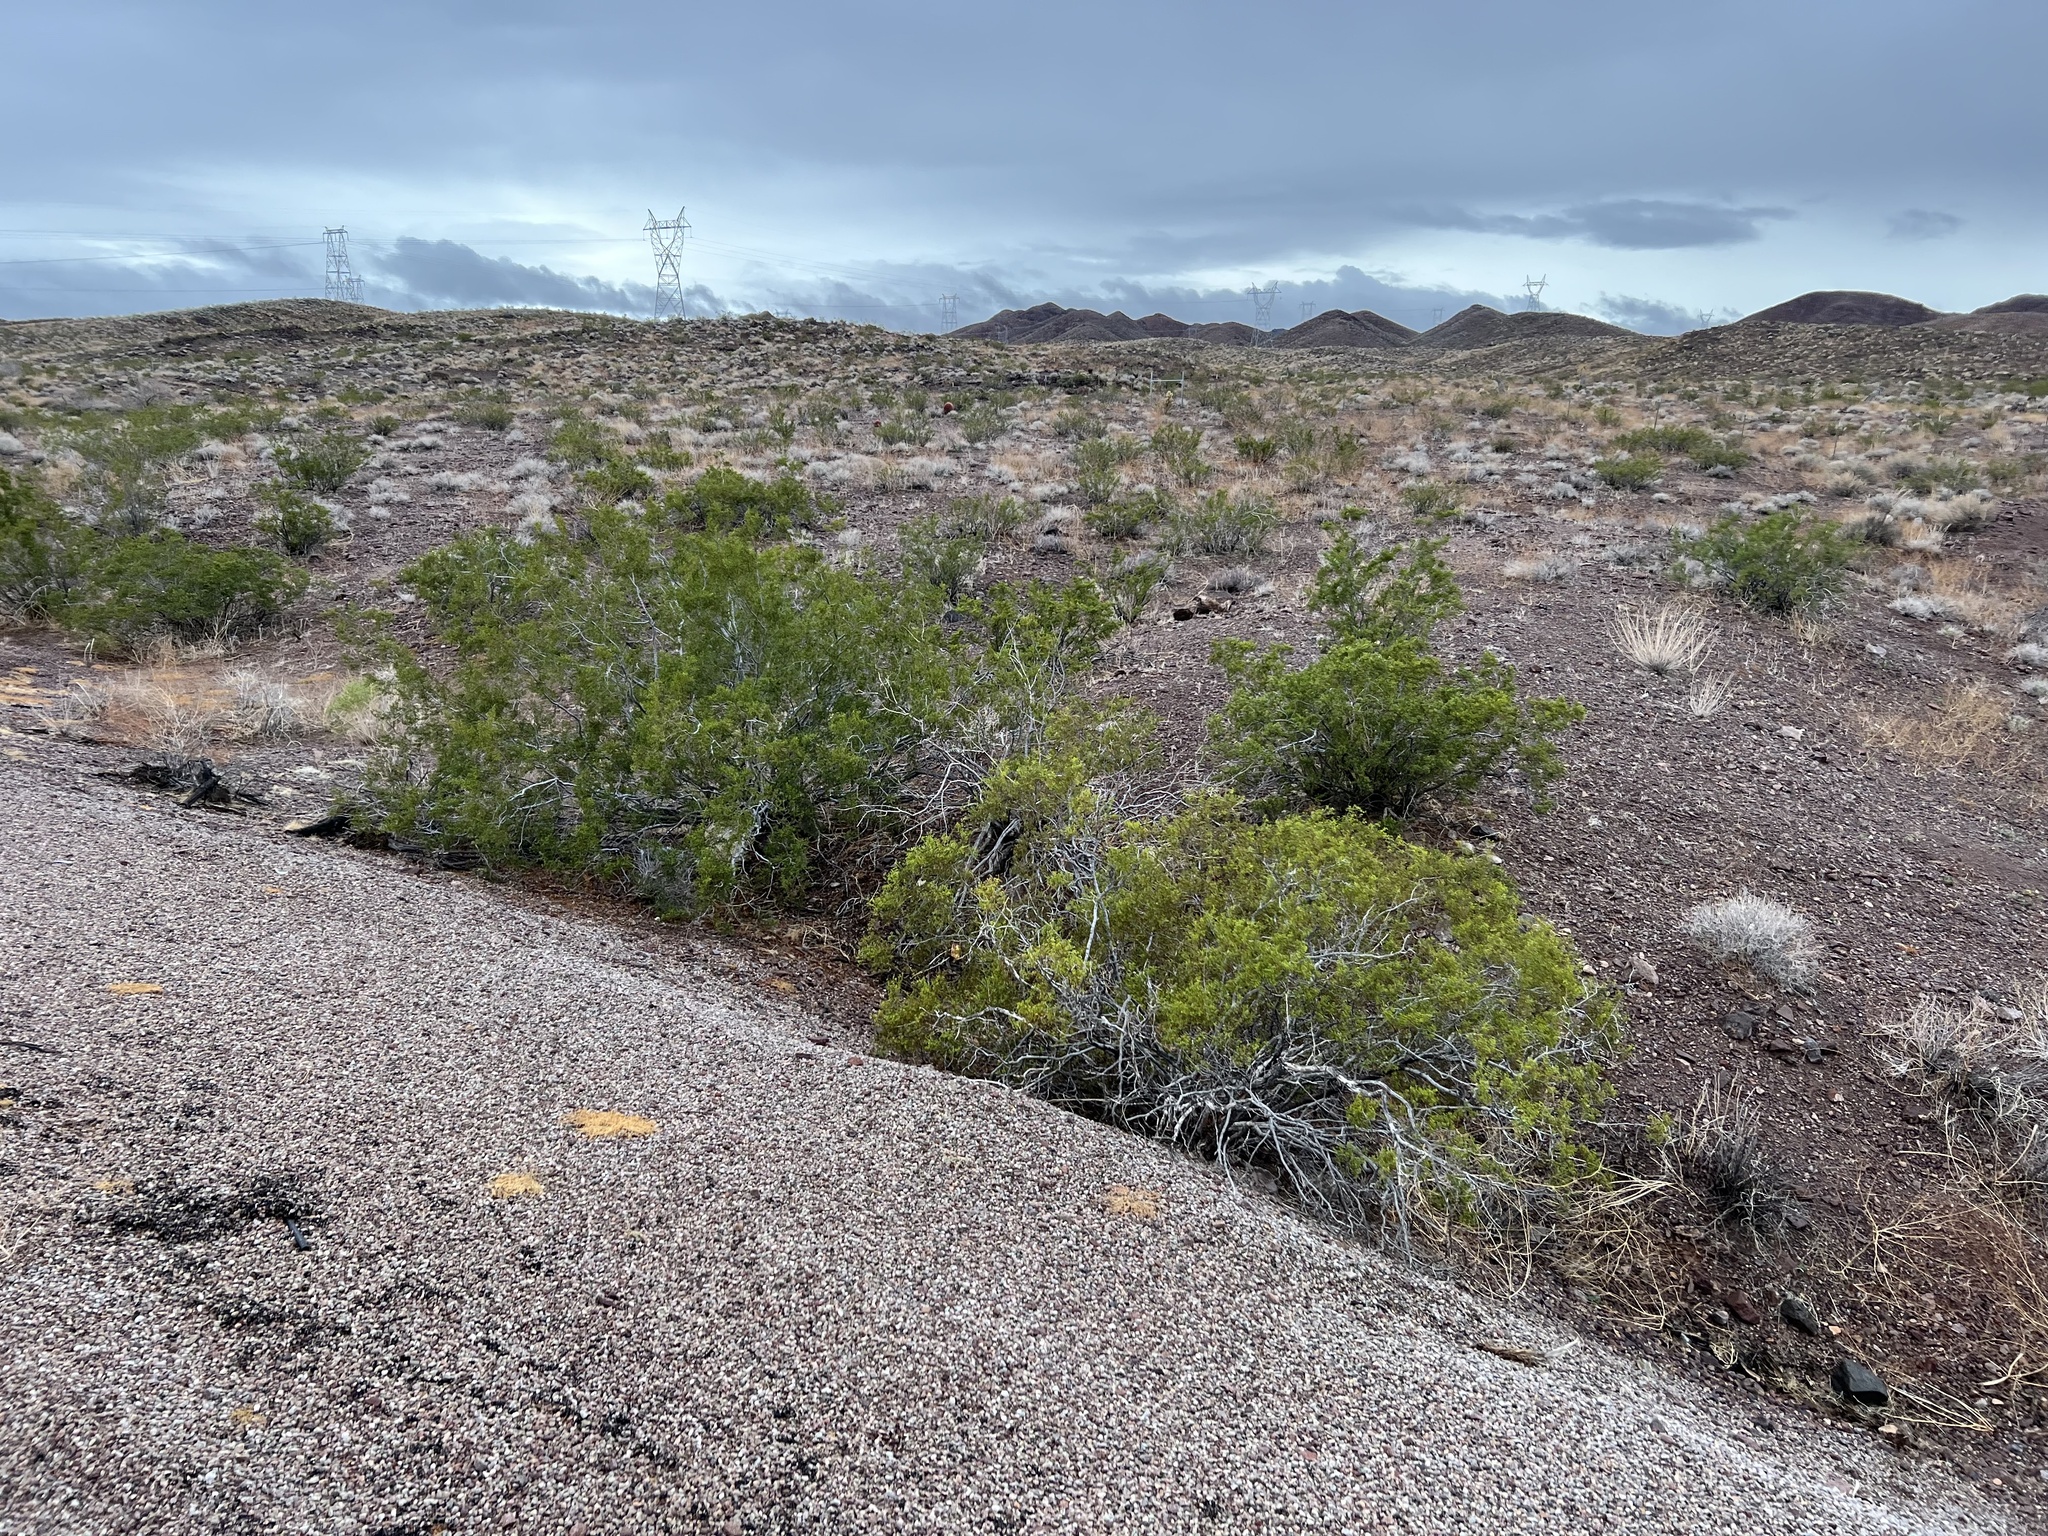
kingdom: Plantae
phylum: Tracheophyta
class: Magnoliopsida
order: Zygophyllales
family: Zygophyllaceae
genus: Larrea
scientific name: Larrea tridentata
